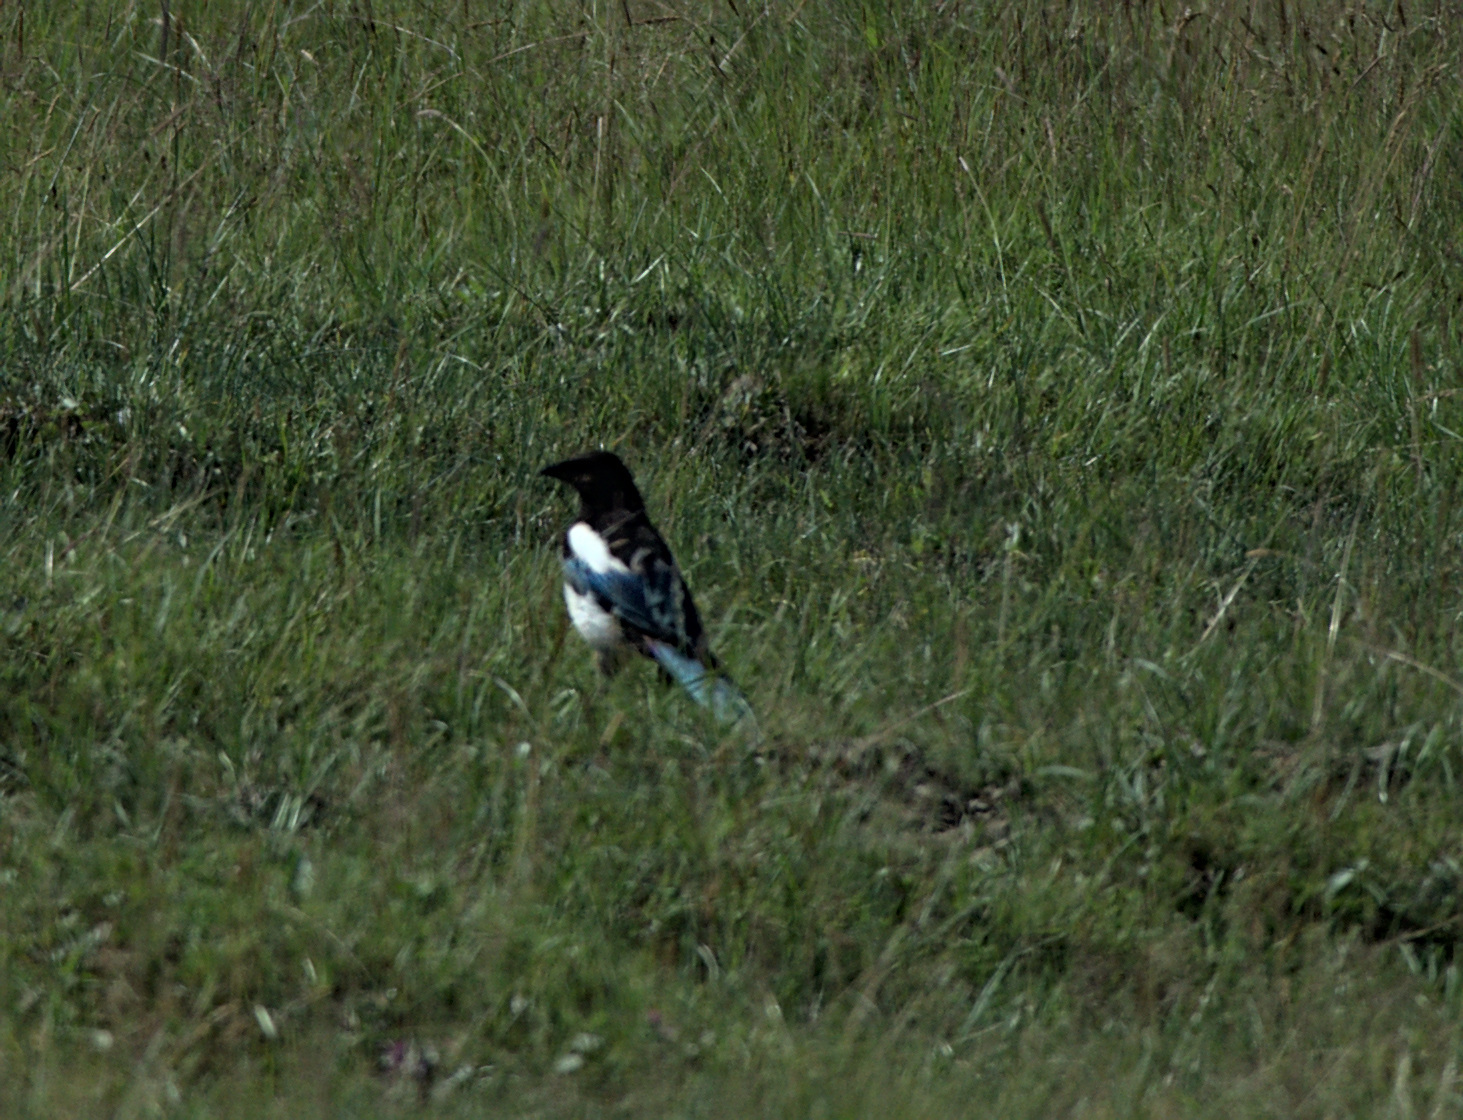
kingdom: Animalia
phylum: Chordata
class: Aves
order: Passeriformes
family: Corvidae
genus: Pica
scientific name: Pica pica
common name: Eurasian magpie
